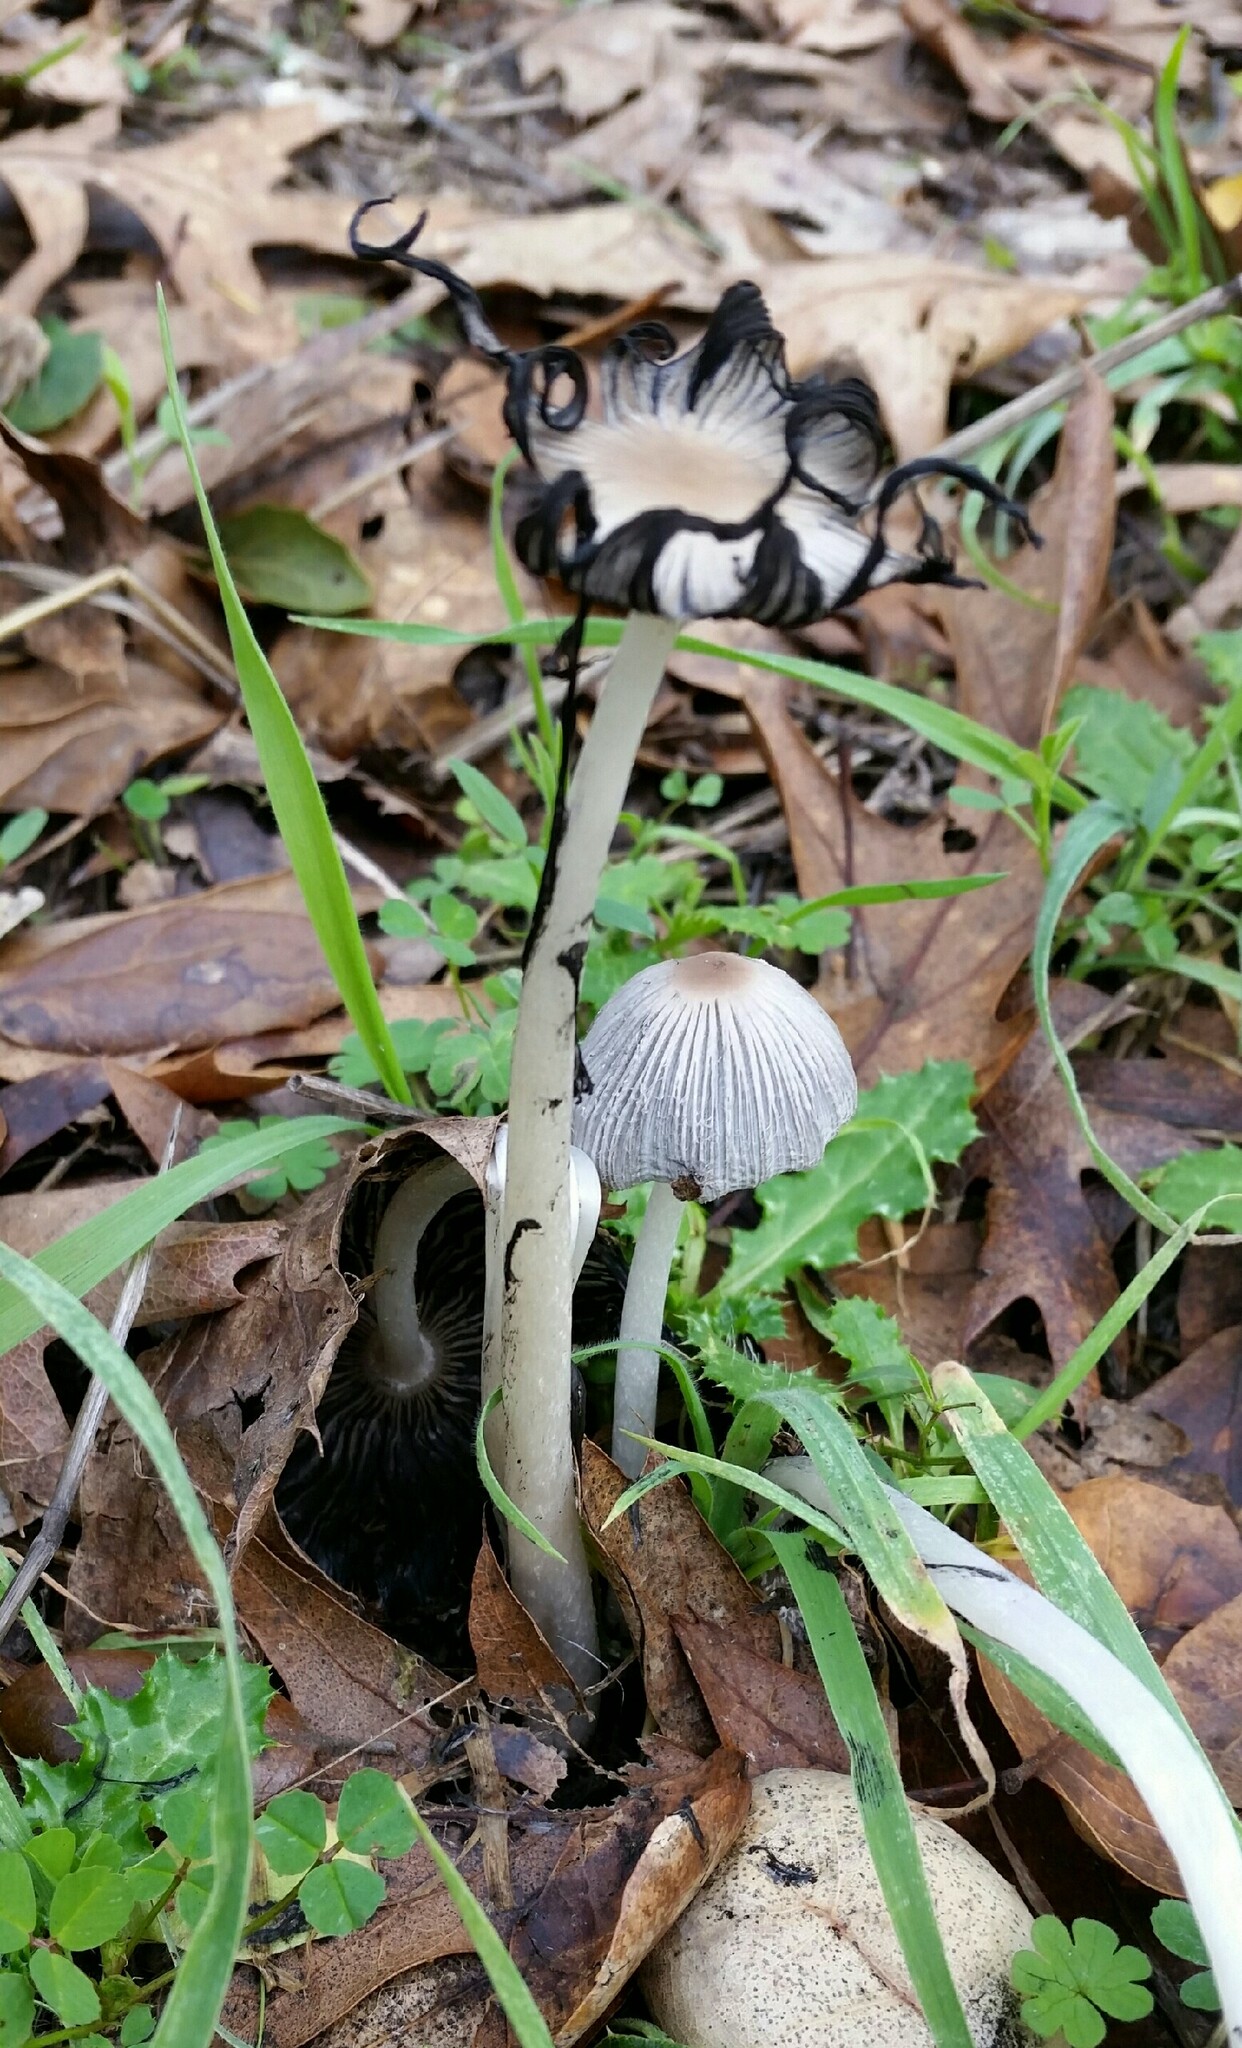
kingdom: Fungi
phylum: Basidiomycota
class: Agaricomycetes
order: Agaricales
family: Psathyrellaceae
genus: Tulosesus
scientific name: Tulosesus impatiens
